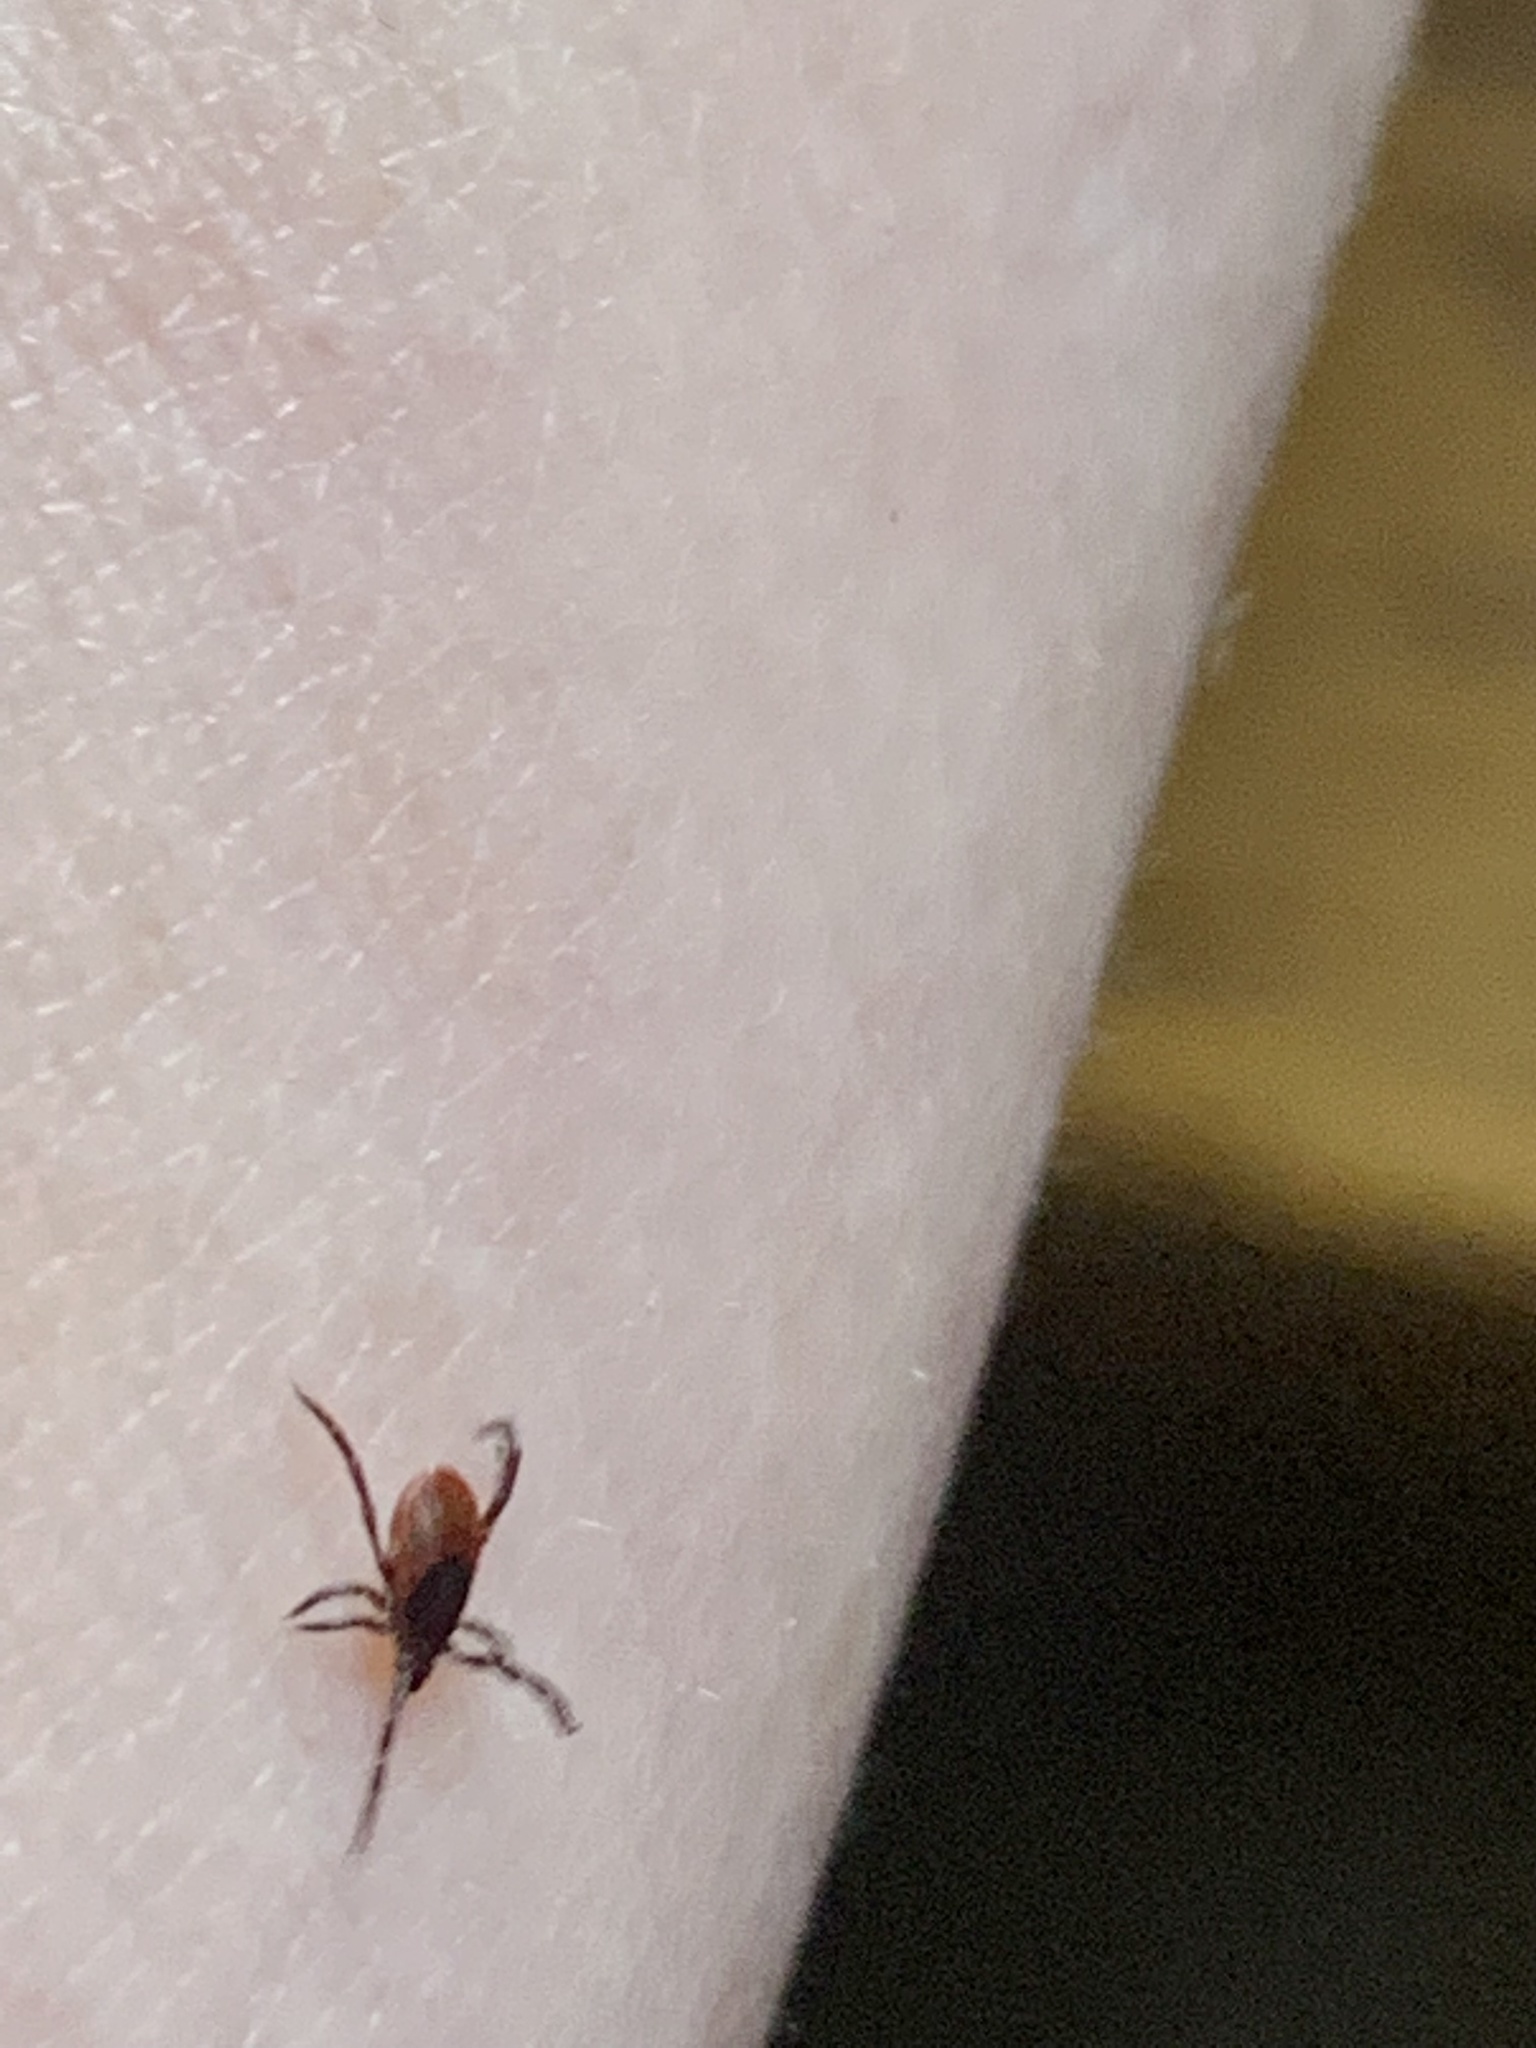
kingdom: Animalia
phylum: Arthropoda
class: Arachnida
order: Ixodida
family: Ixodidae
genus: Ixodes
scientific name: Ixodes pacificus
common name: California black-legged tick
